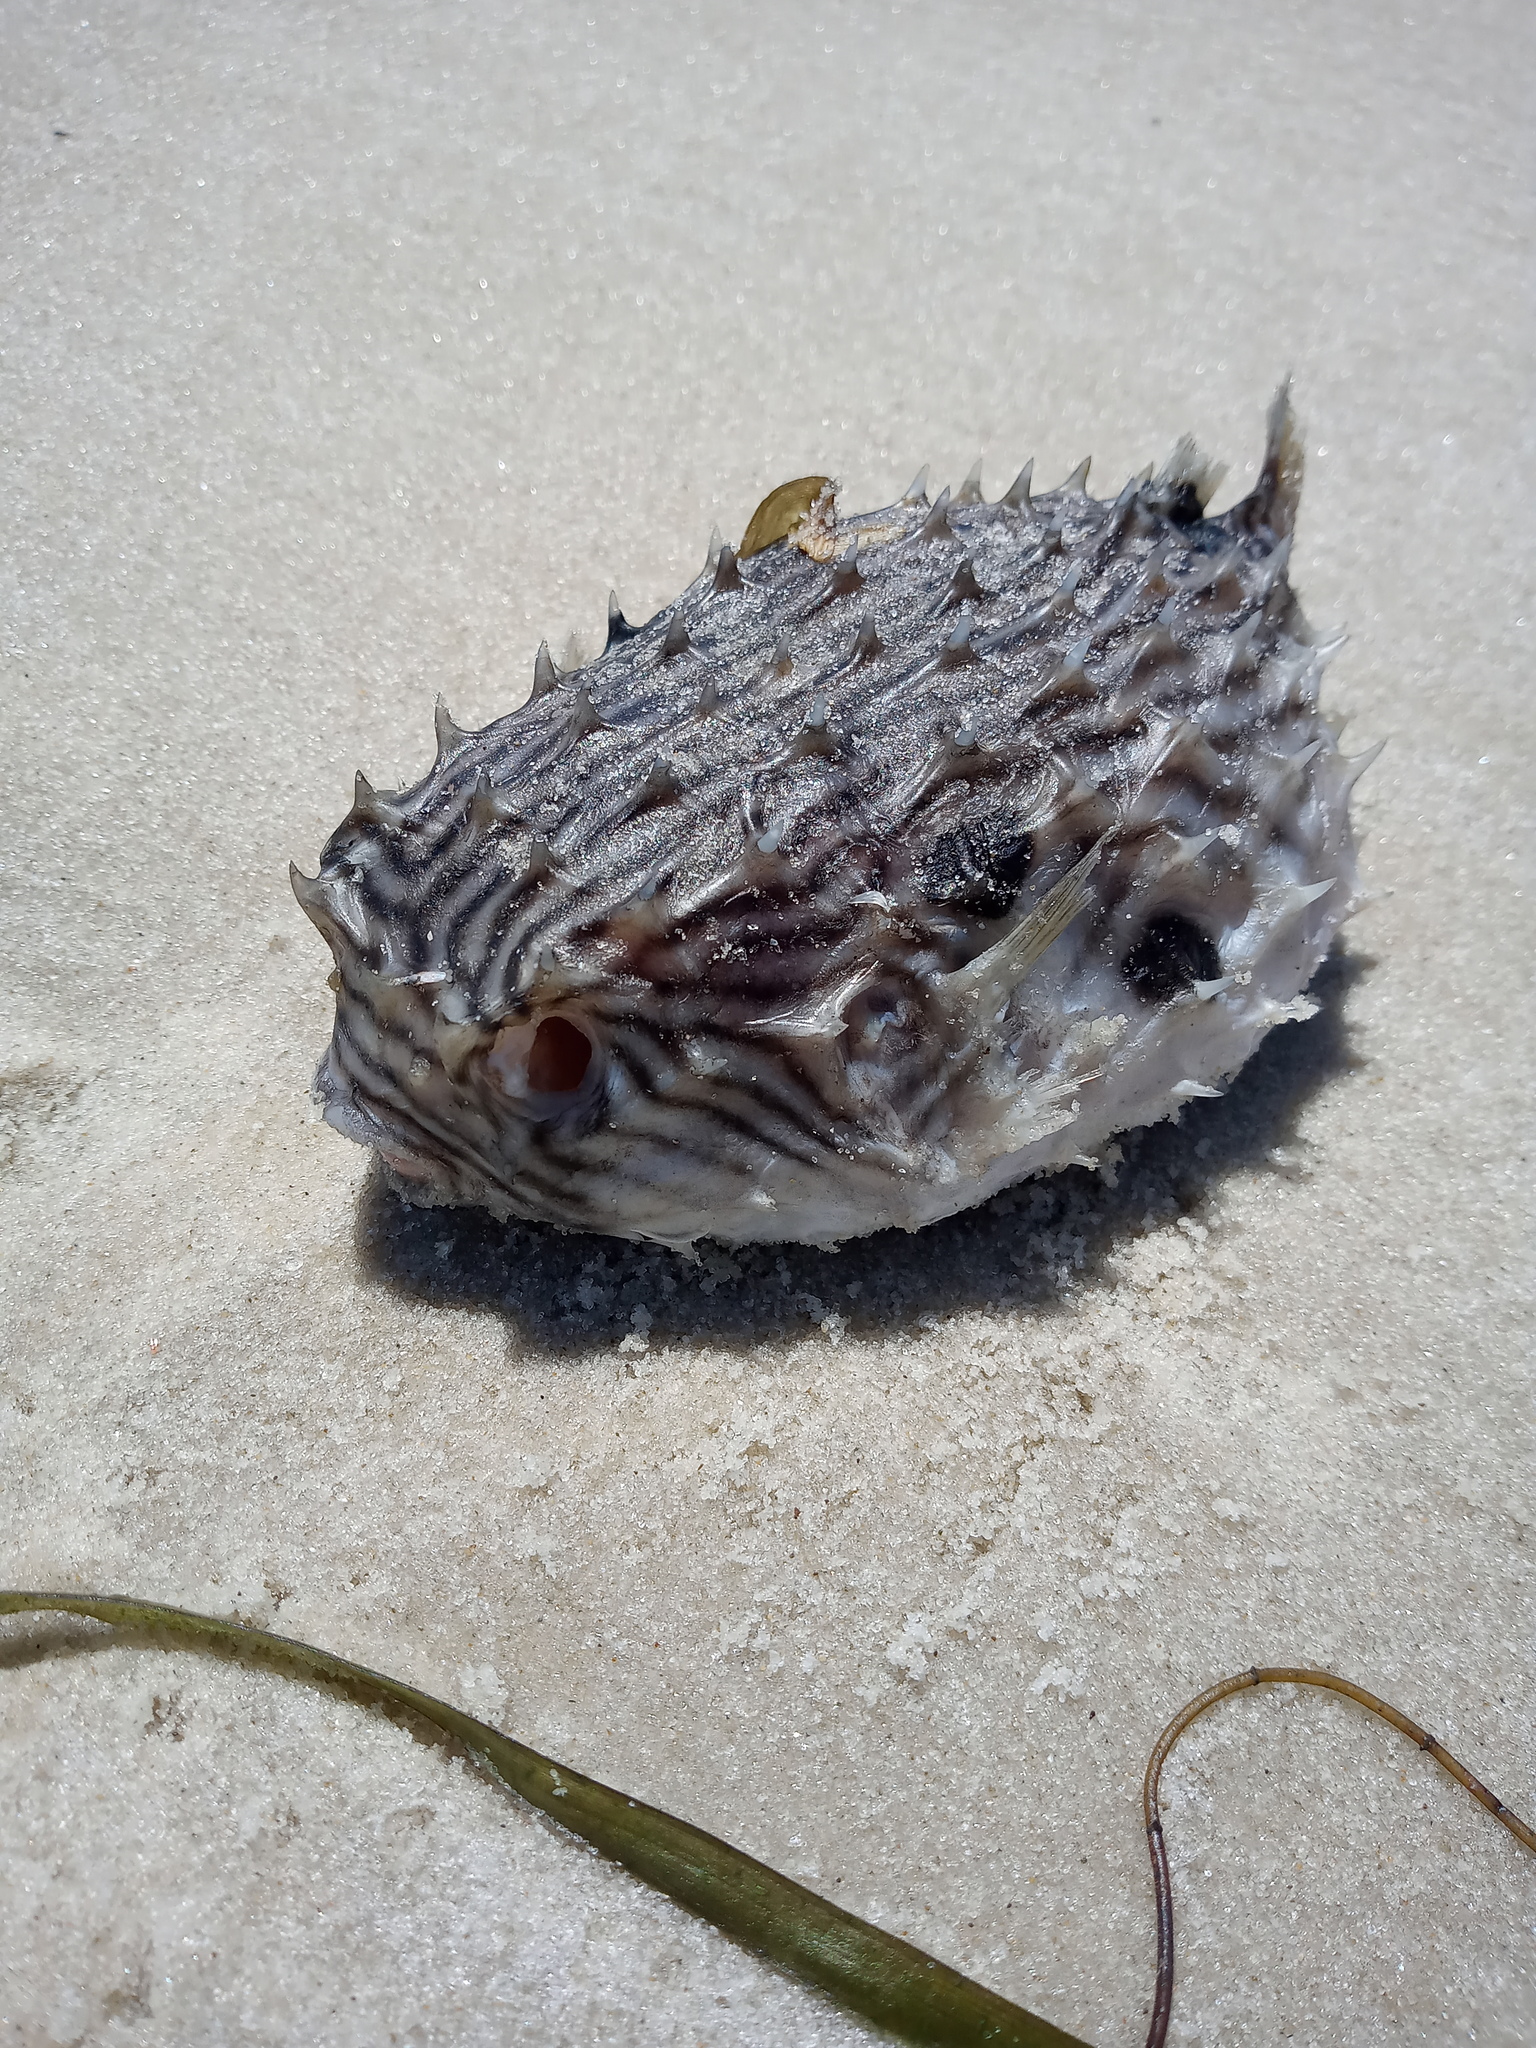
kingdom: Animalia
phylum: Chordata
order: Tetraodontiformes
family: Diodontidae
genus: Chilomycterus
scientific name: Chilomycterus schoepfii
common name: Striped burrfish
